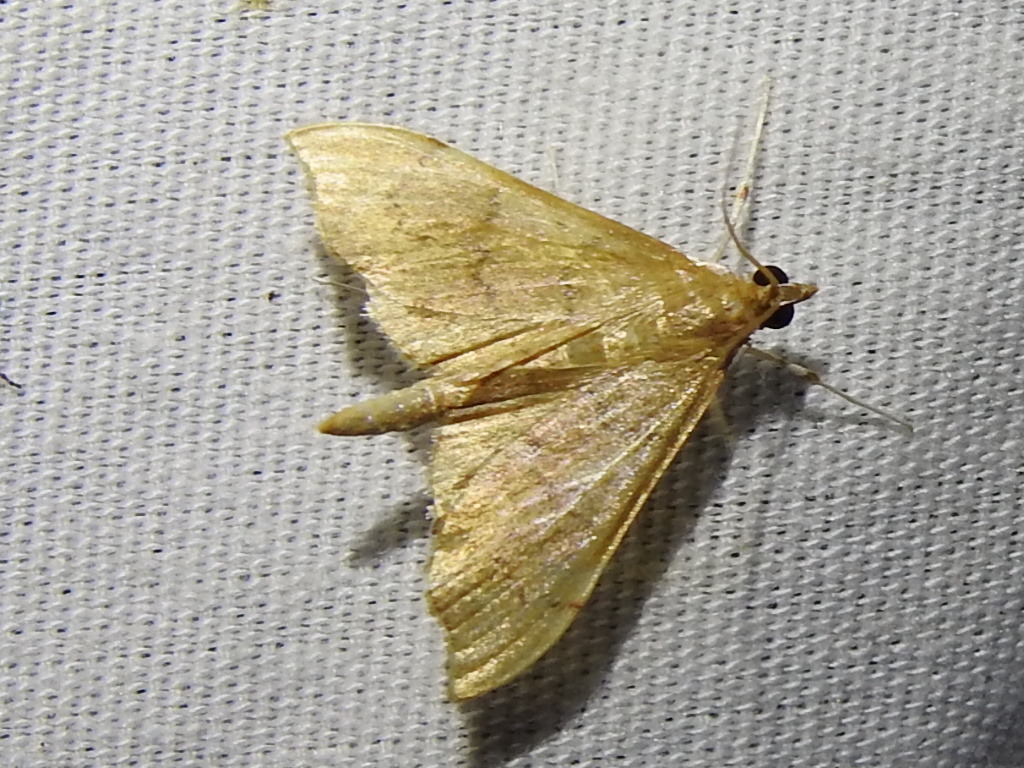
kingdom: Animalia
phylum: Arthropoda
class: Insecta
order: Lepidoptera
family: Crambidae
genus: Sericoplaga
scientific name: Sericoplaga externalis
